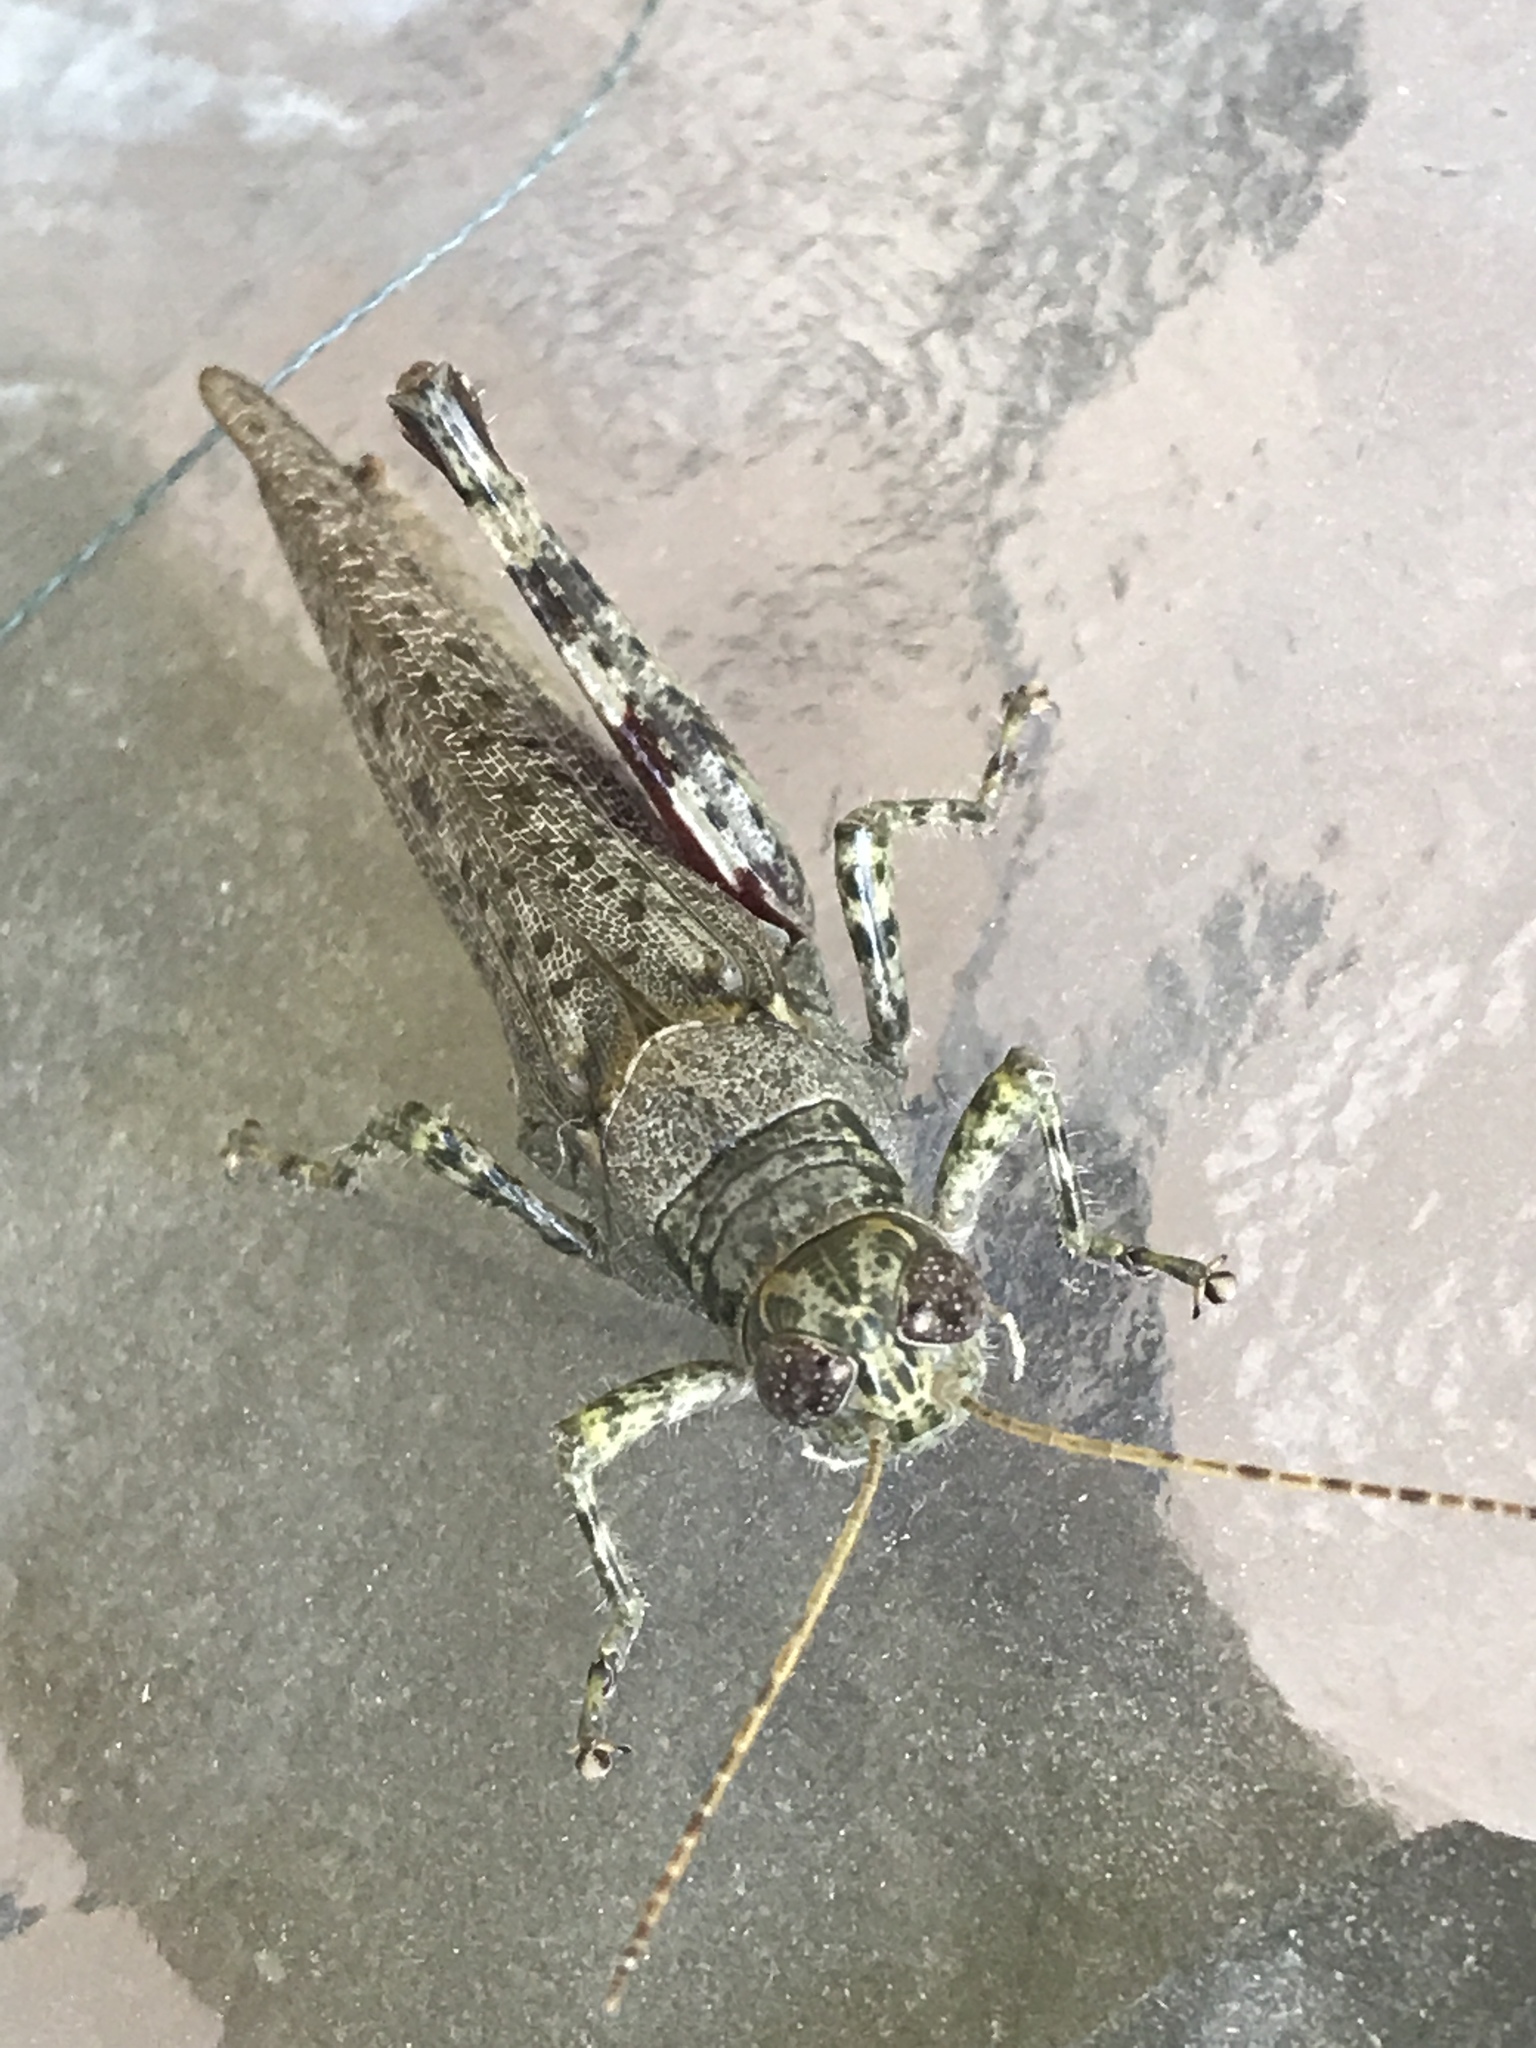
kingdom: Animalia
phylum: Arthropoda
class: Insecta
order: Orthoptera
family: Acrididae
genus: Melanoplus
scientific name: Melanoplus punctulatus
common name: Pine-tree spur-throat grasshopper
